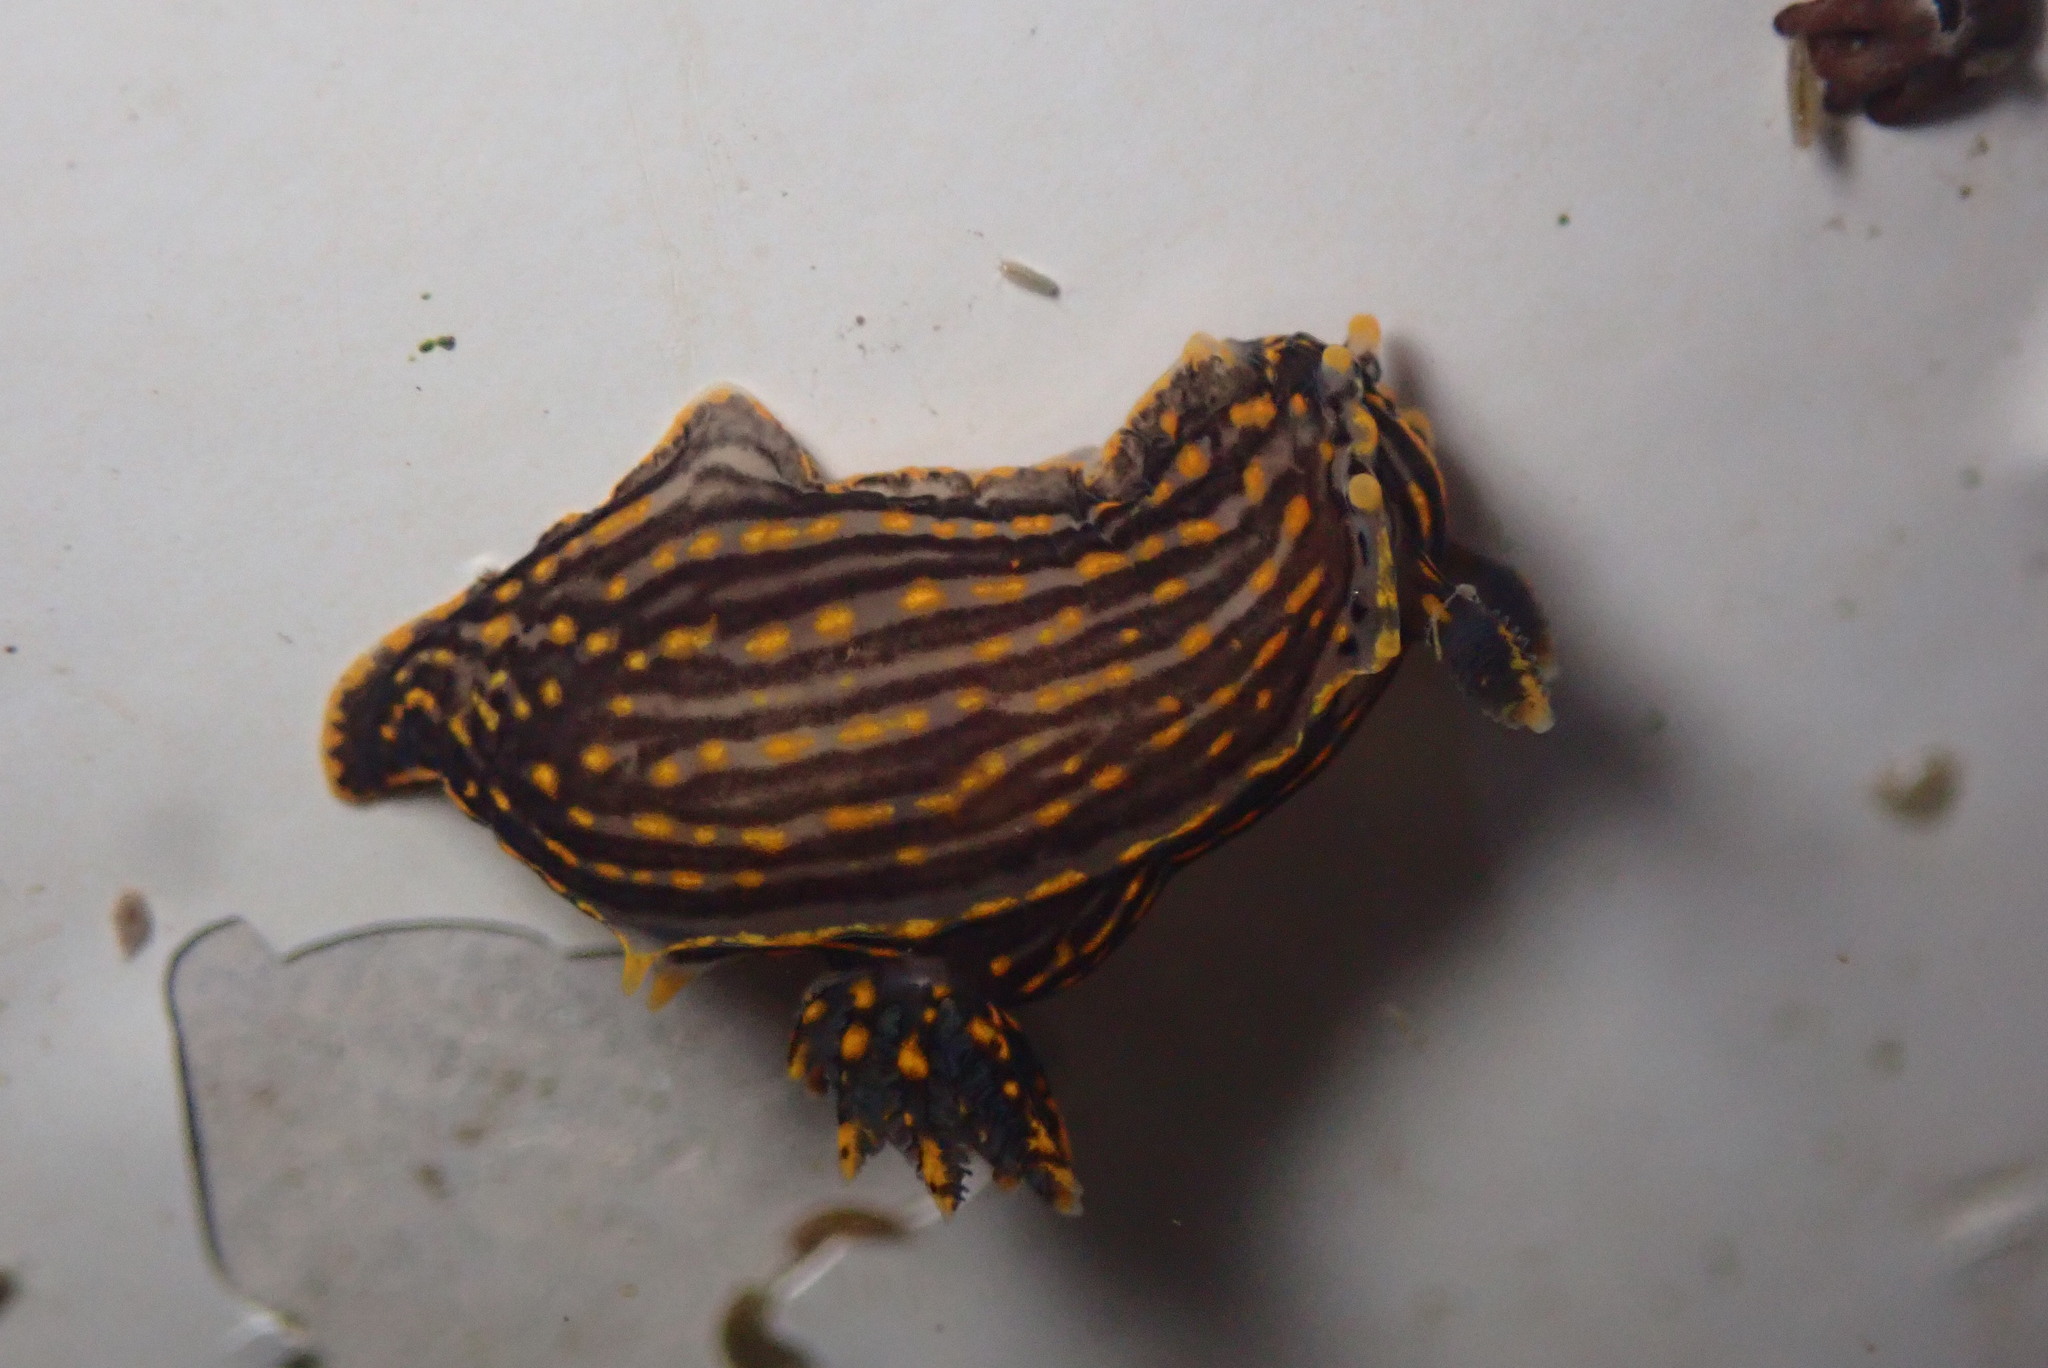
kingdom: Animalia
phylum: Mollusca
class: Gastropoda
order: Nudibranchia
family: Polyceridae
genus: Polycera
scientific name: Polycera atra
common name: Orange-spike polycera
